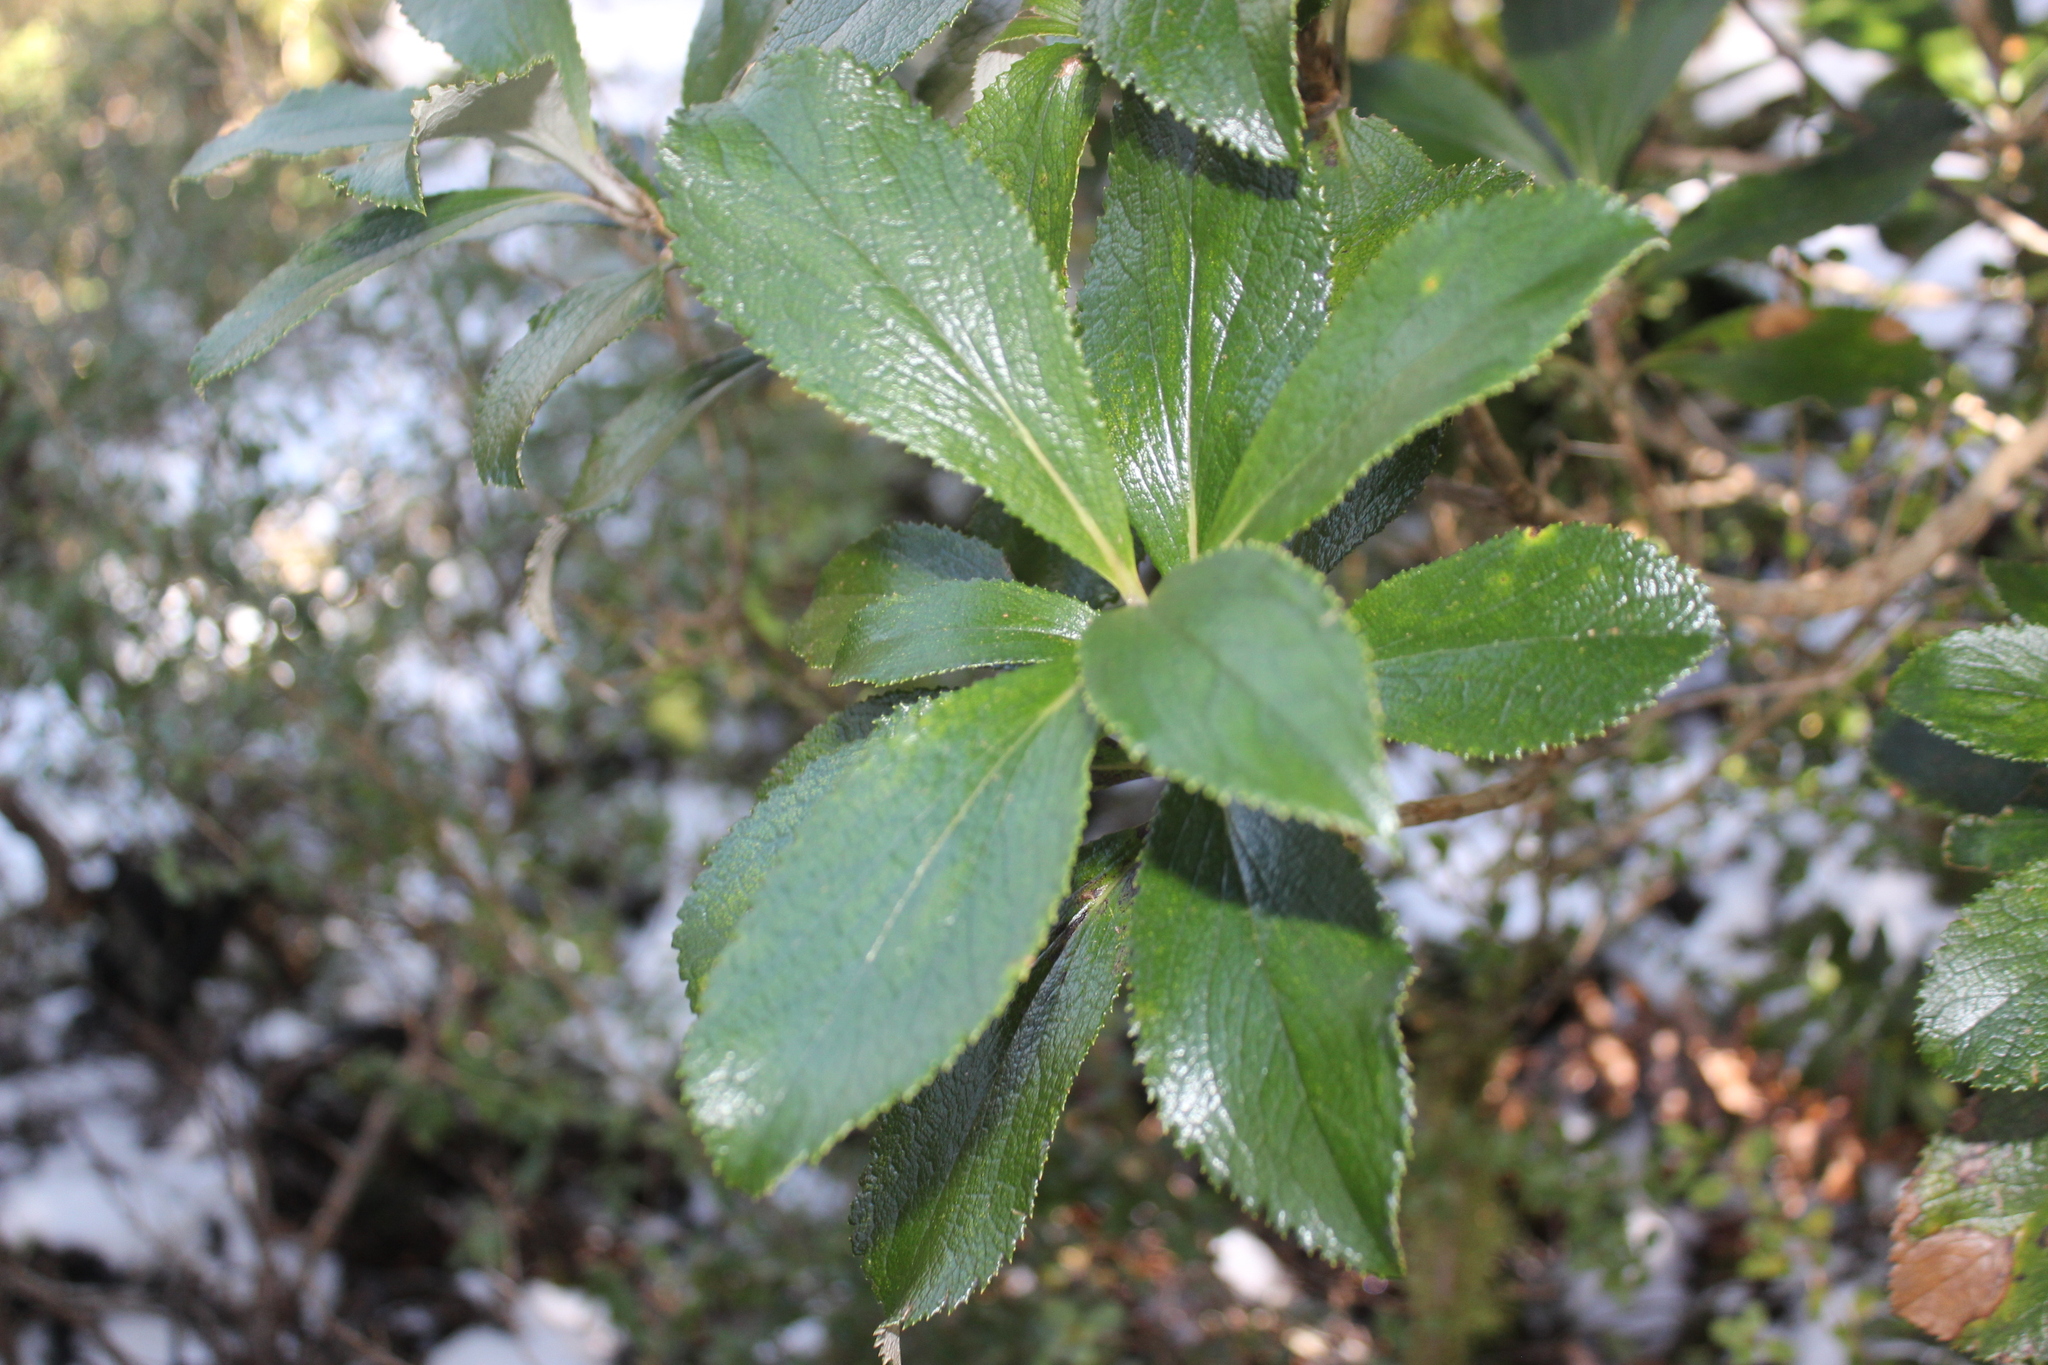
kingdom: Plantae
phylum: Tracheophyta
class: Magnoliopsida
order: Asterales
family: Asteraceae
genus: Macrolearia
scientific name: Macrolearia colensoi
